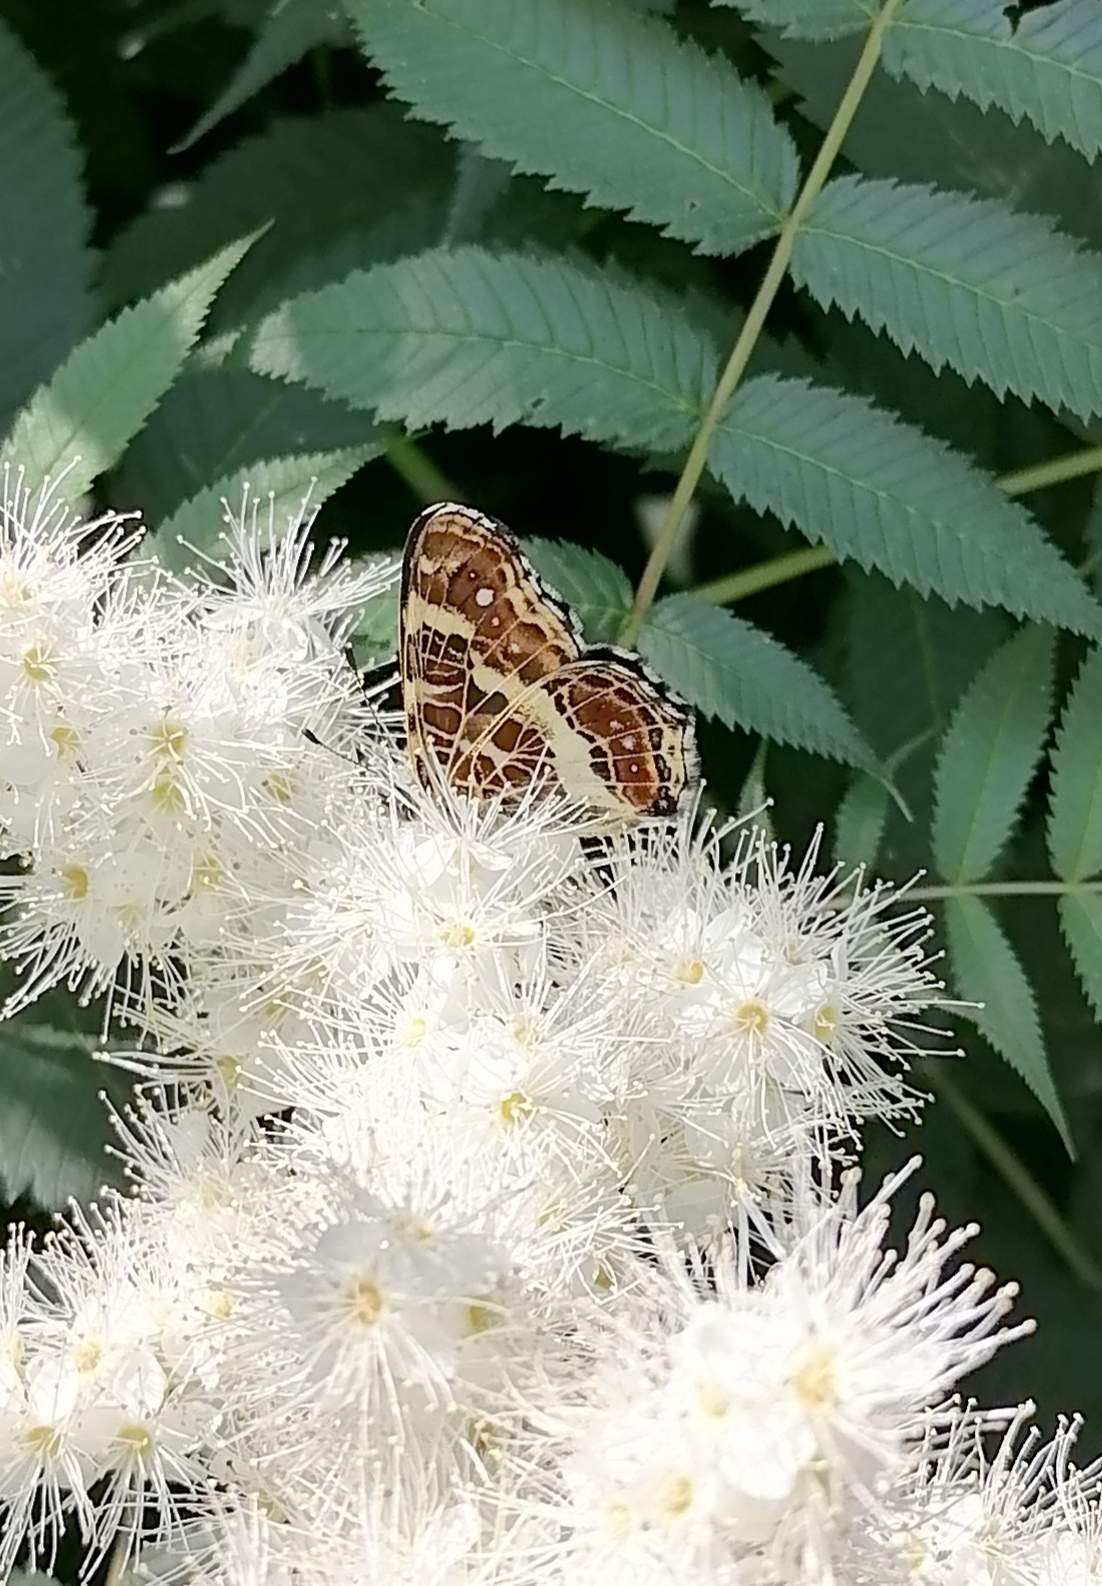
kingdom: Animalia
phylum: Arthropoda
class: Insecta
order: Lepidoptera
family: Nymphalidae
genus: Araschnia
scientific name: Araschnia levana
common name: Map butterfly
